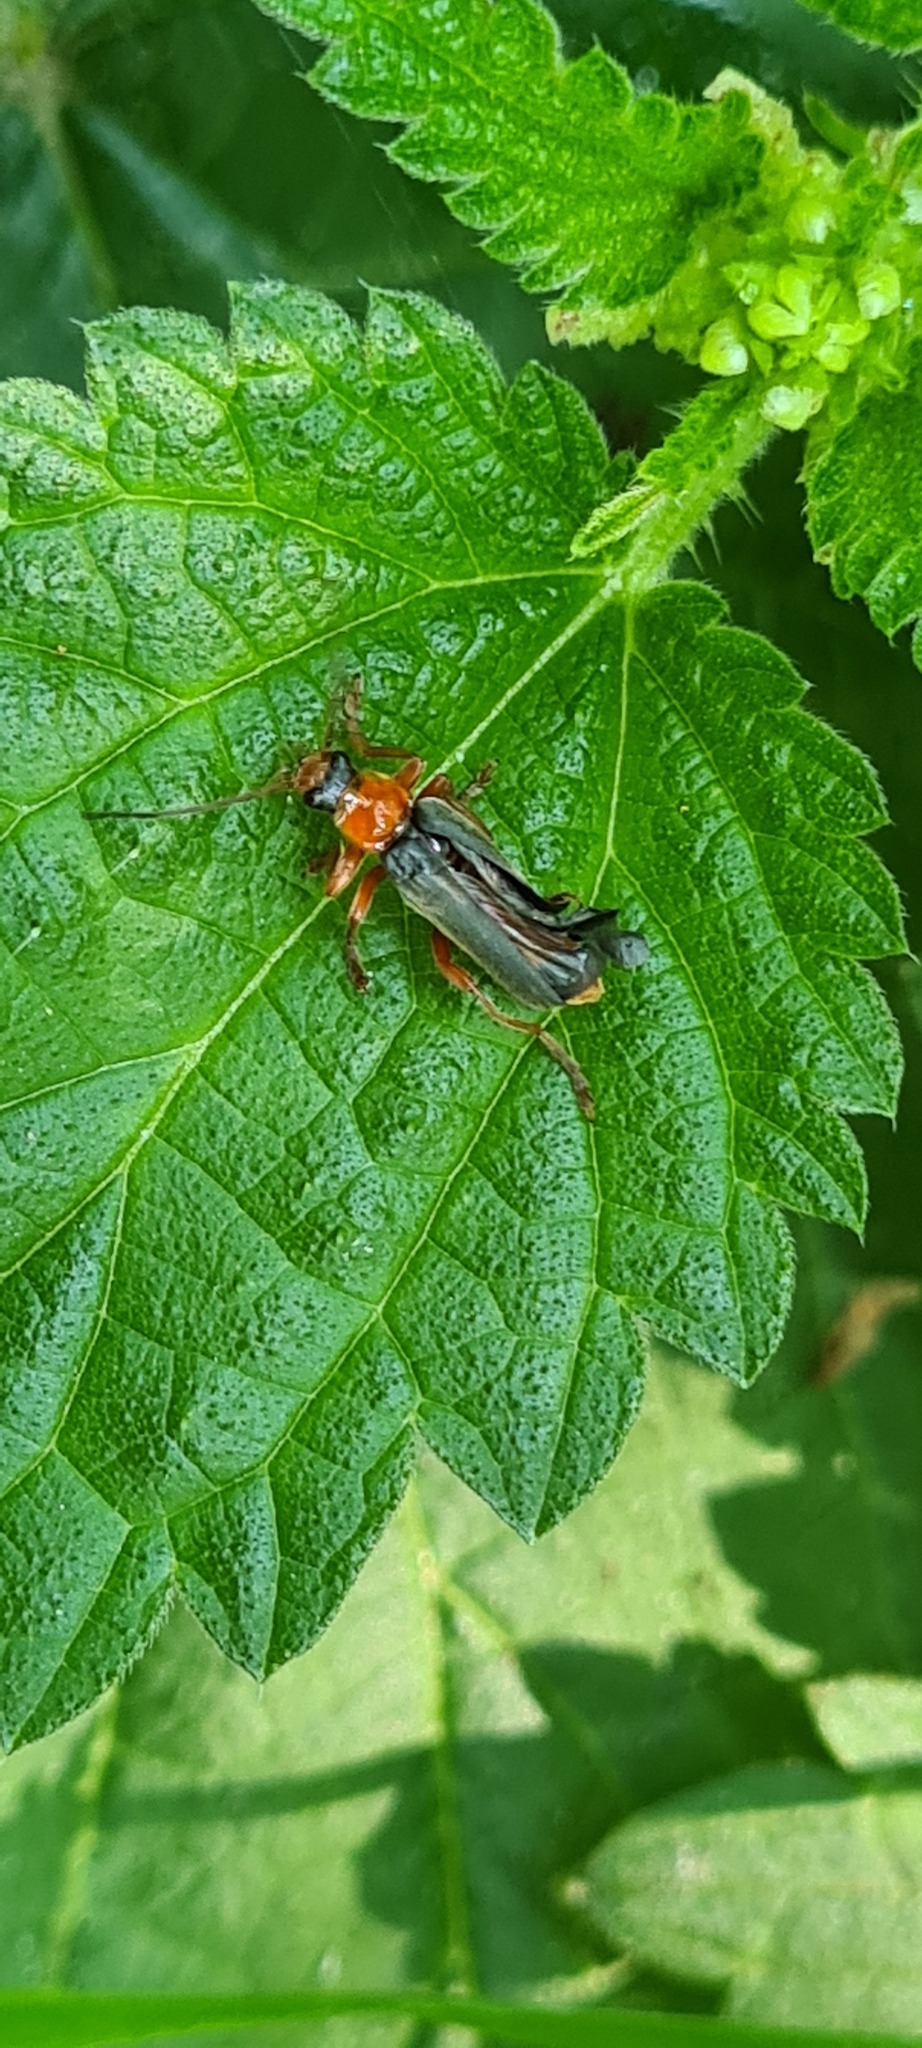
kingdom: Animalia
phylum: Arthropoda
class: Insecta
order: Coleoptera
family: Cantharidae
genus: Cantharis
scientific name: Cantharis pellucida
